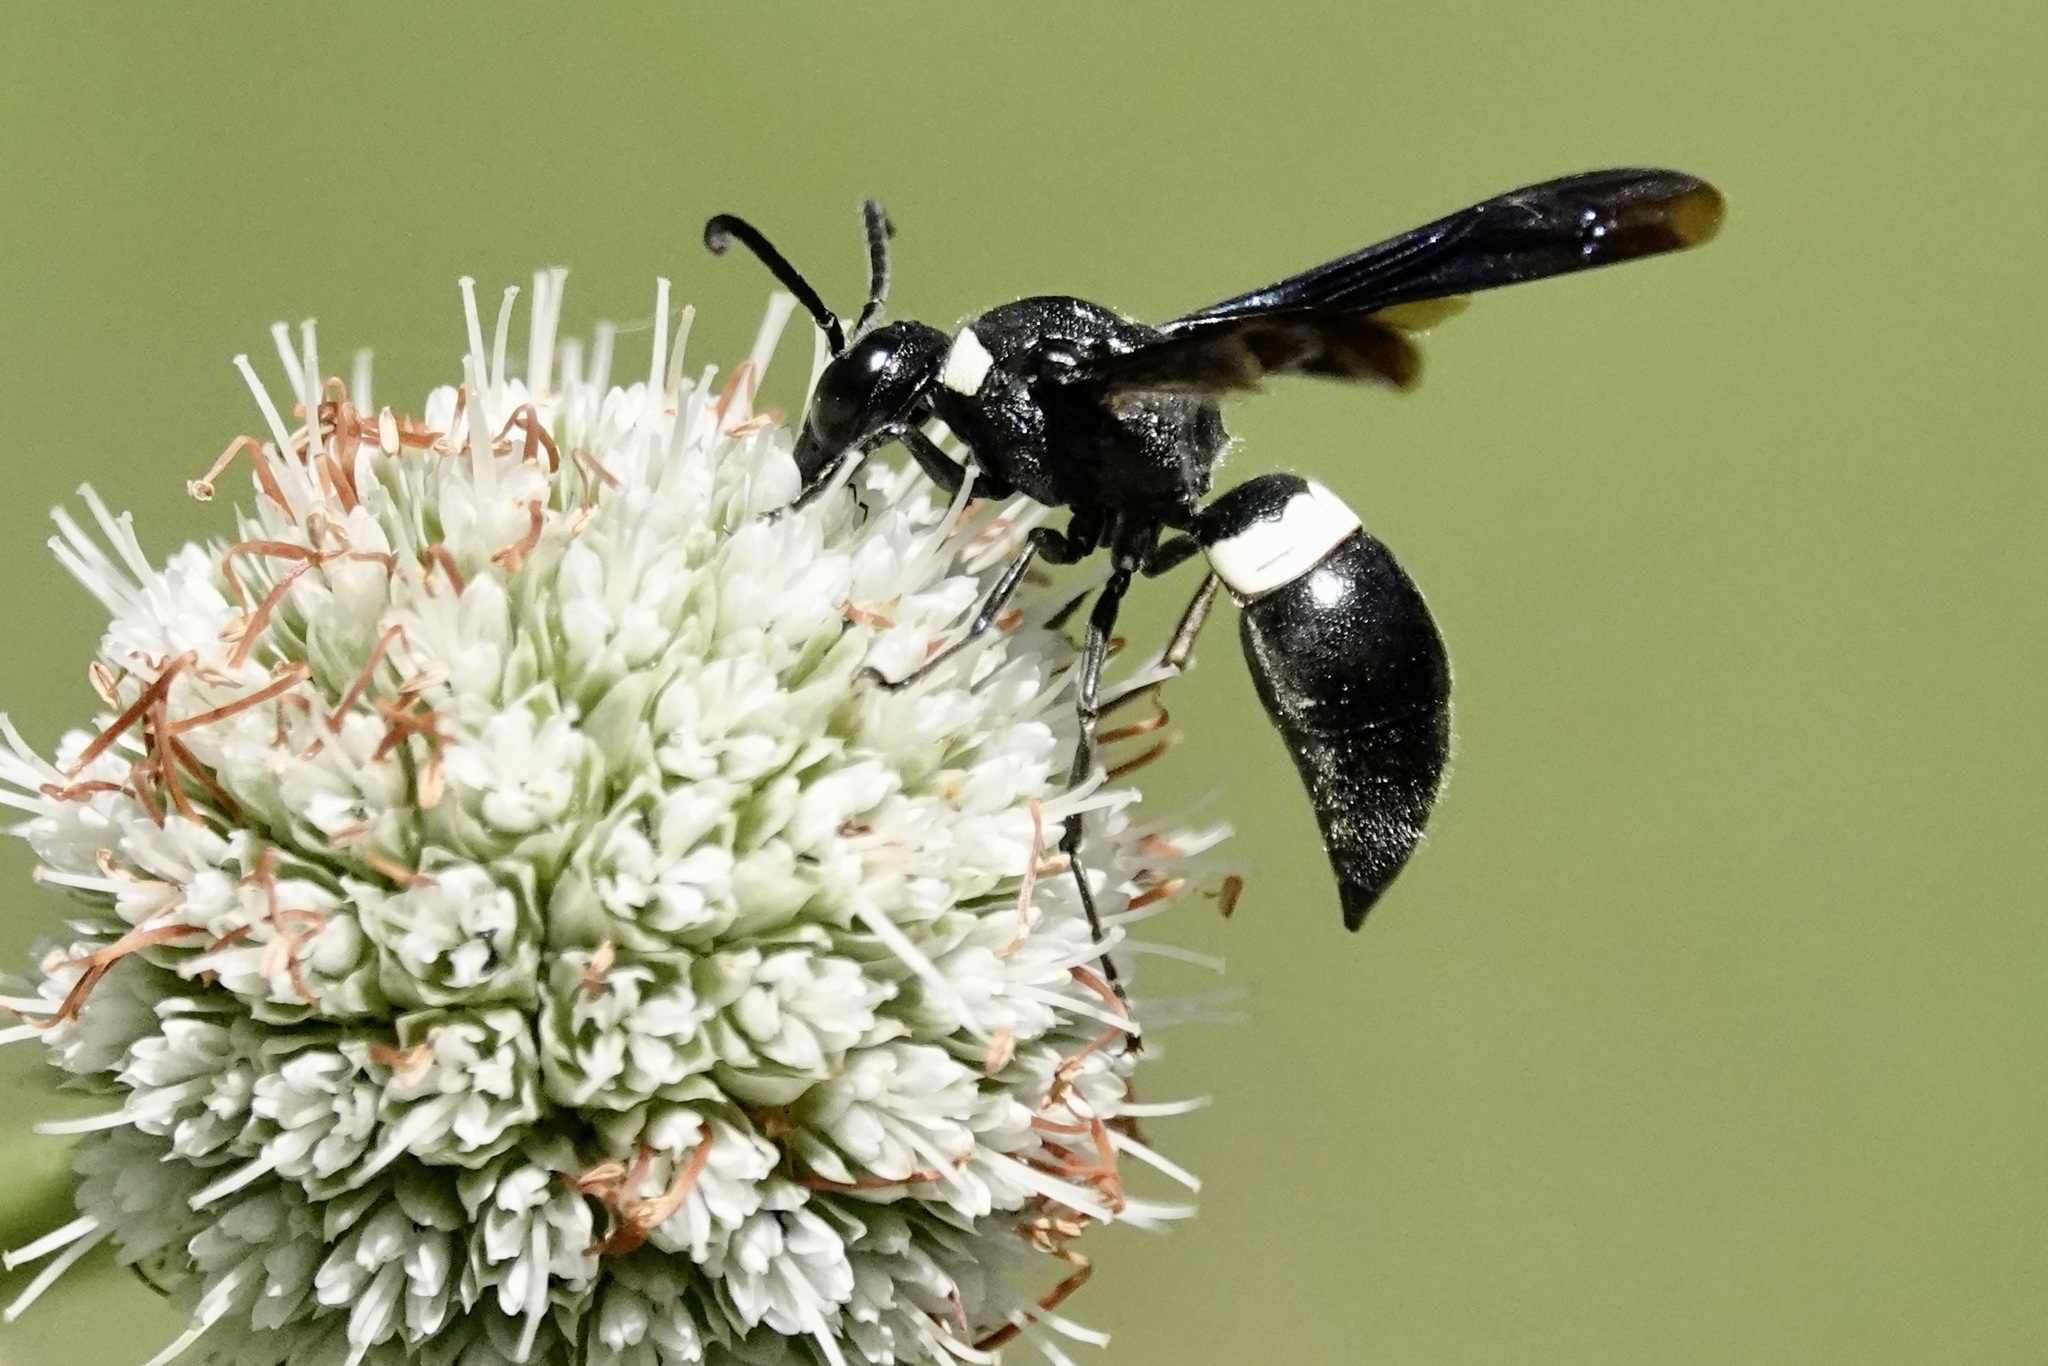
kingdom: Animalia
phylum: Arthropoda
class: Insecta
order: Hymenoptera
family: Eumenidae
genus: Monobia
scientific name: Monobia quadridens
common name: Four-toothed mason wasp
